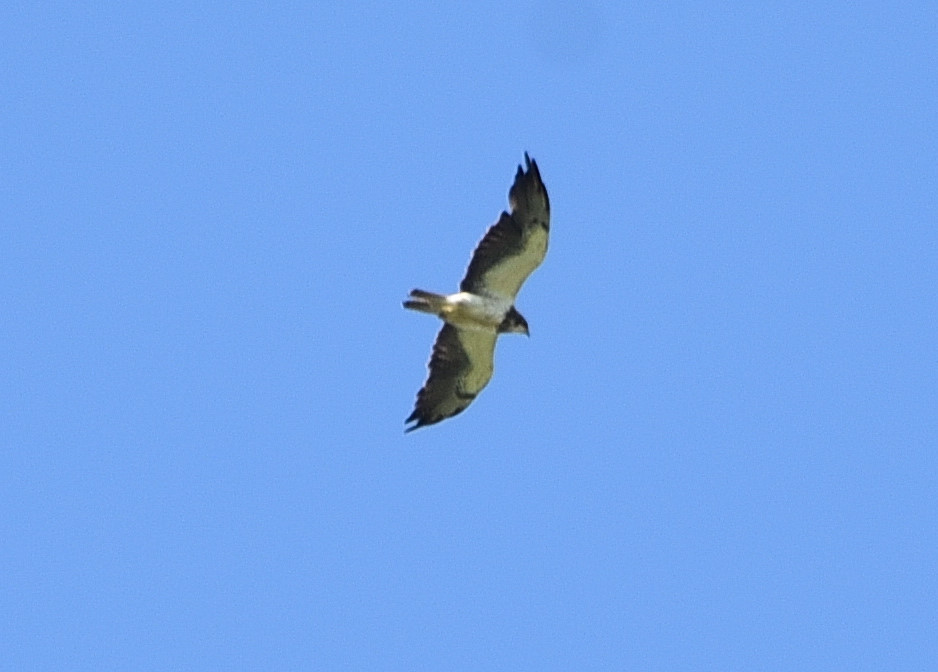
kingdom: Animalia
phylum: Chordata
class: Aves
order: Accipitriformes
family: Accipitridae
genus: Buteo
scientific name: Buteo swainsoni
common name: Swainson's hawk
